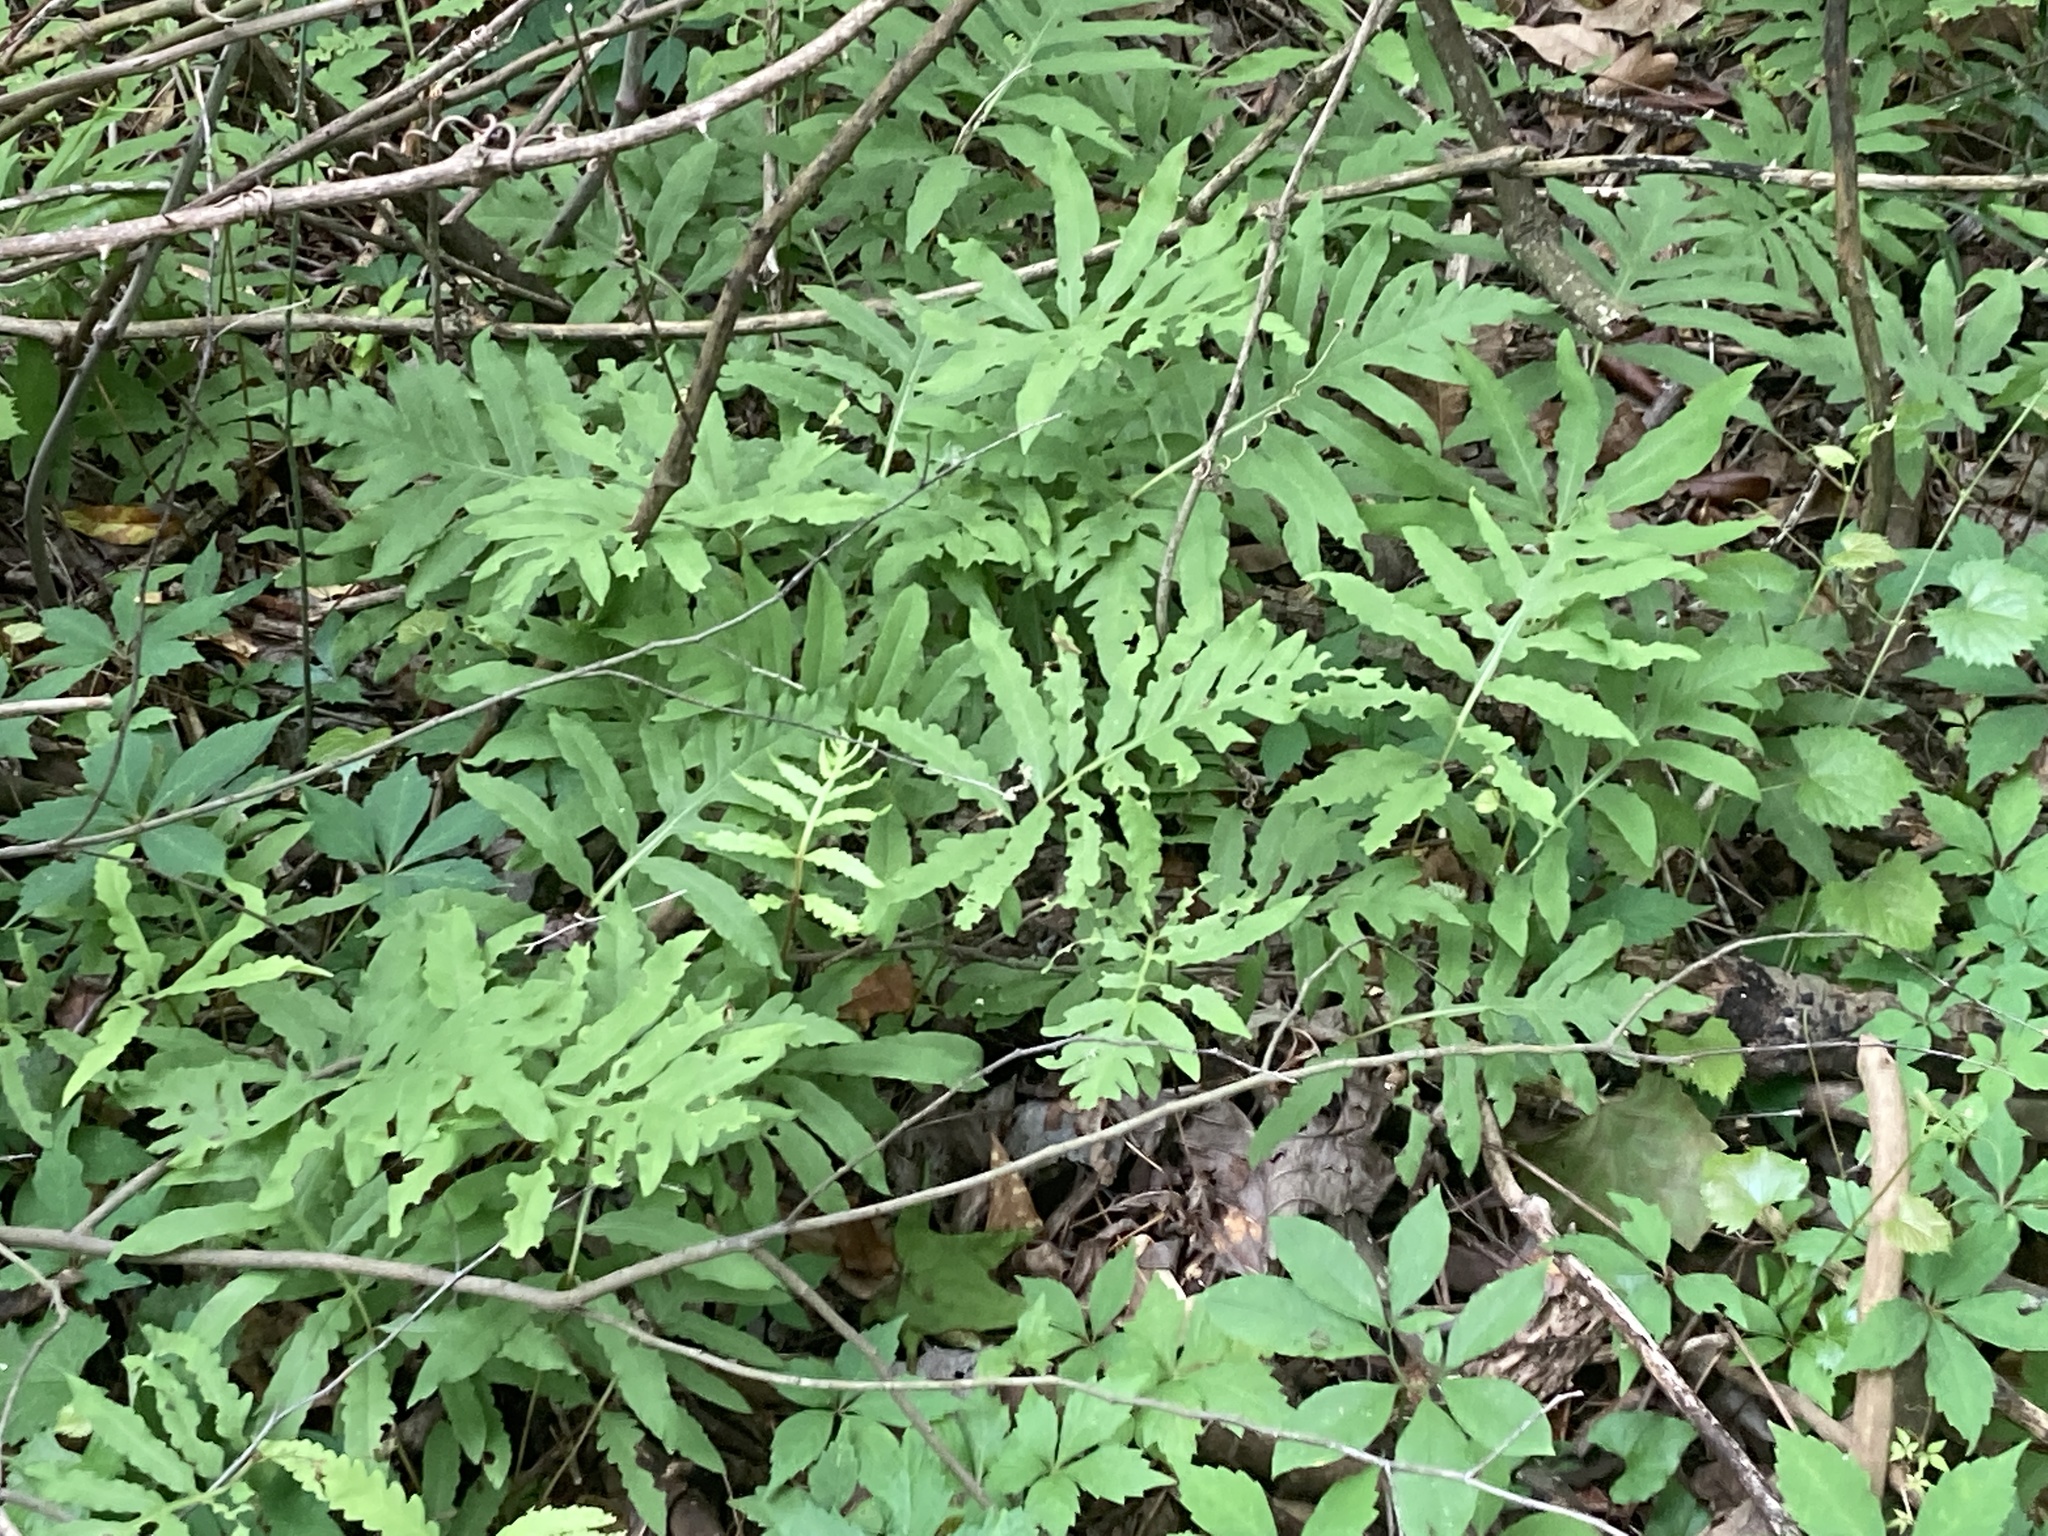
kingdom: Plantae
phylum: Tracheophyta
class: Polypodiopsida
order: Polypodiales
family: Onocleaceae
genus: Onoclea
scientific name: Onoclea sensibilis
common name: Sensitive fern
